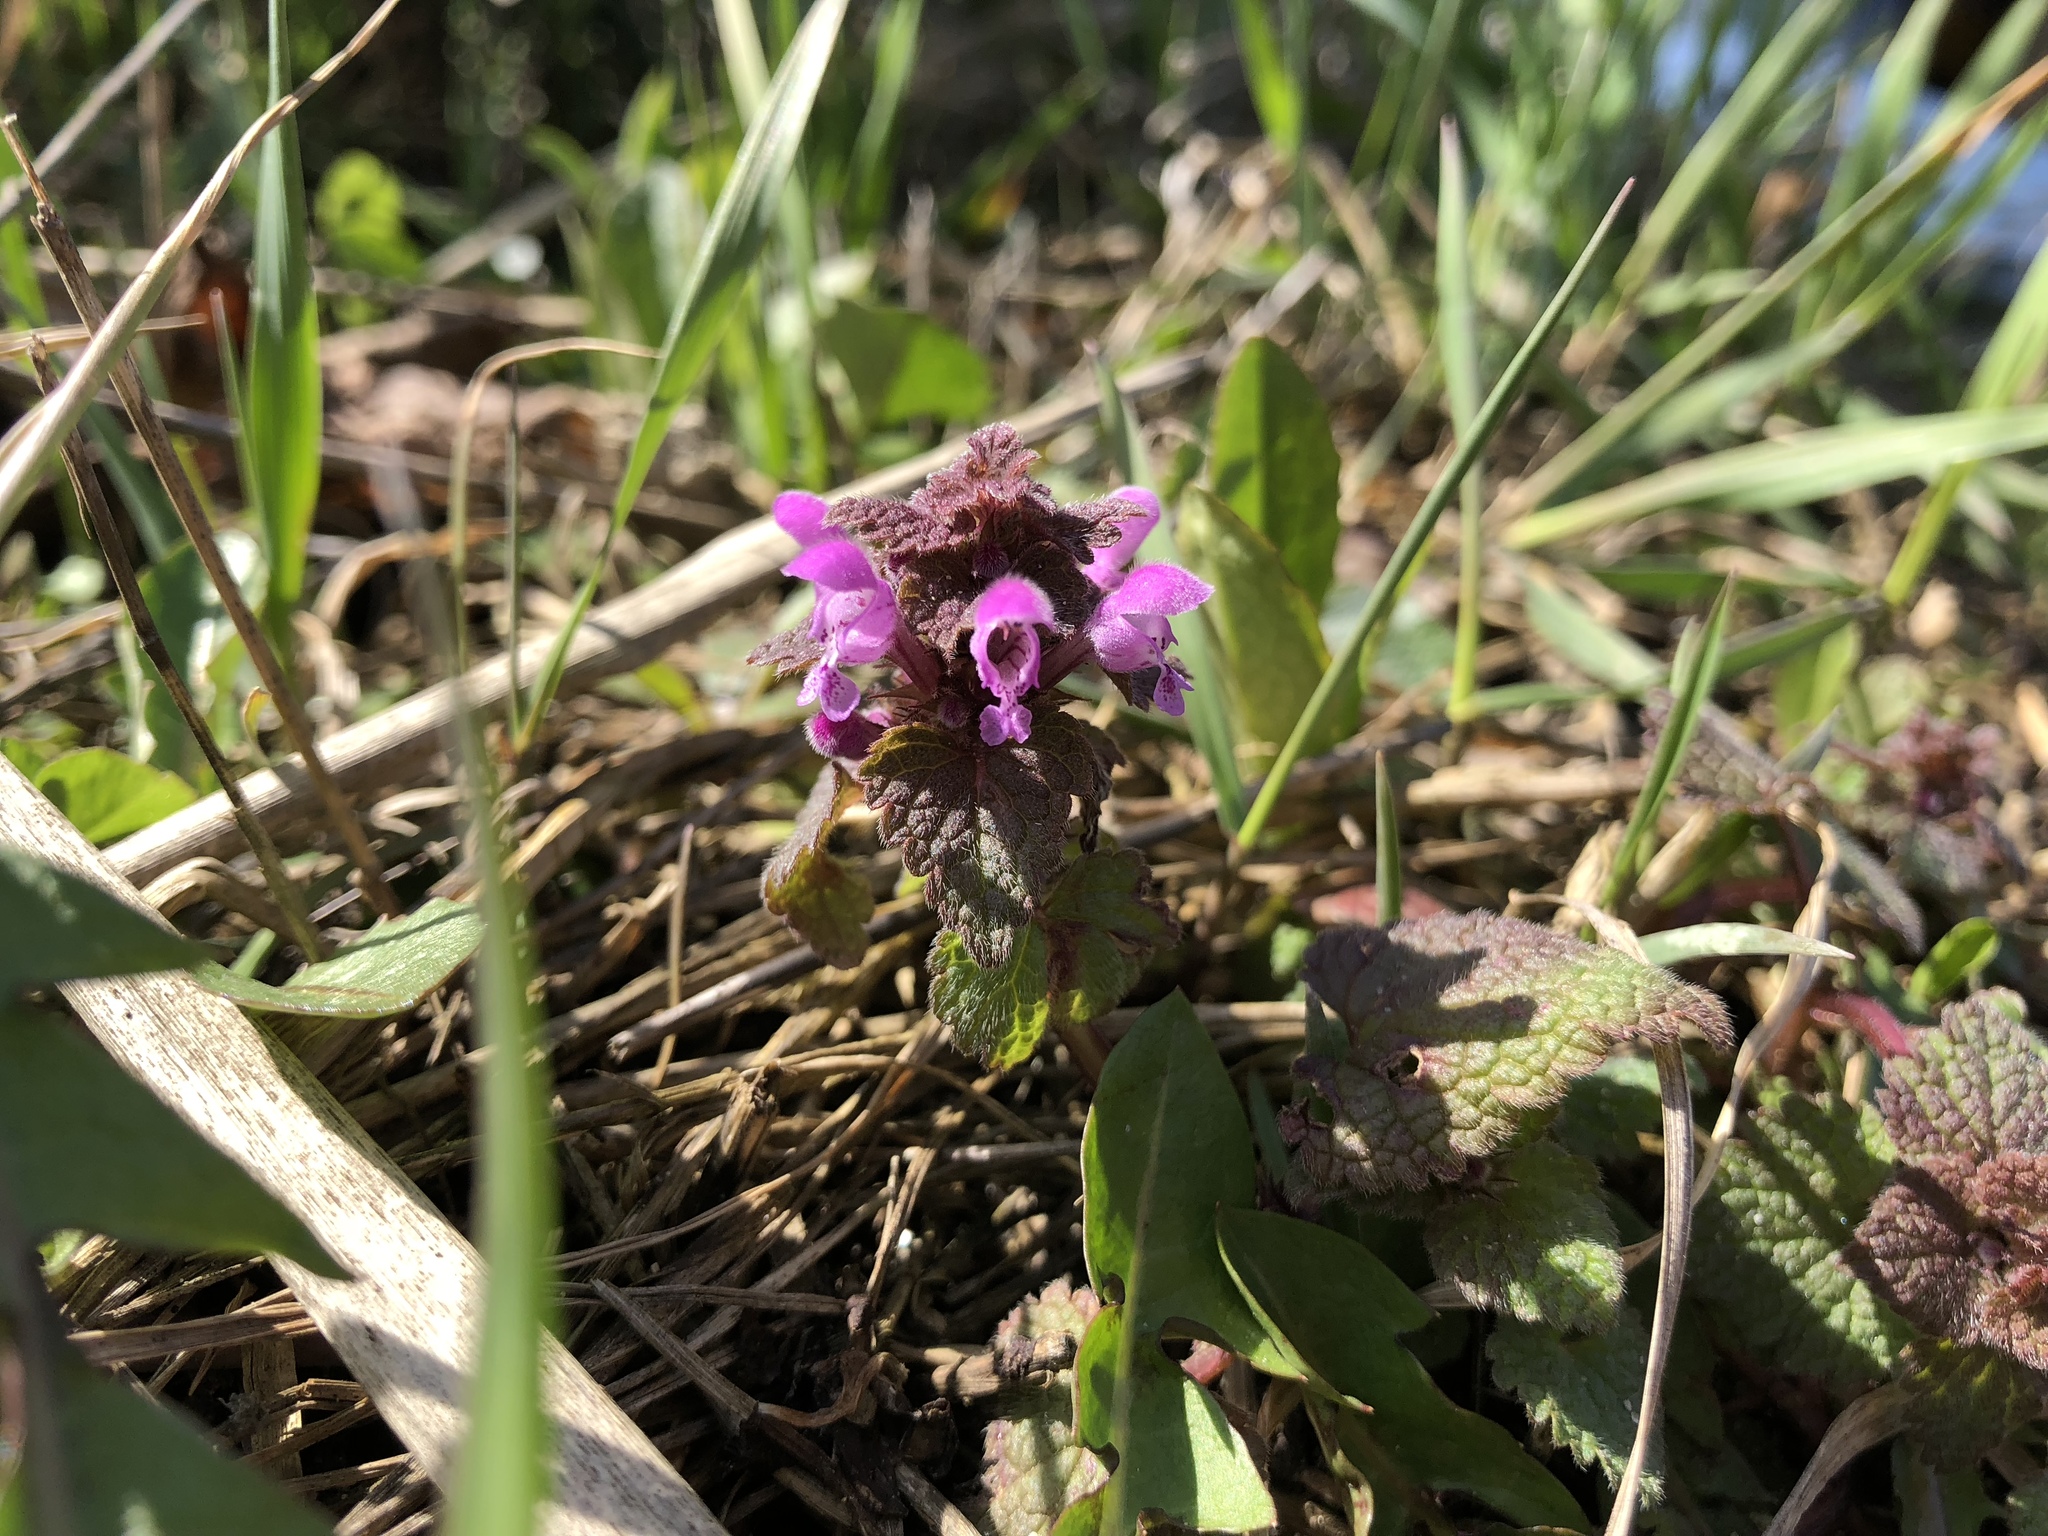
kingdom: Plantae
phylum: Tracheophyta
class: Magnoliopsida
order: Lamiales
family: Lamiaceae
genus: Lamium
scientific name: Lamium purpureum
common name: Red dead-nettle
